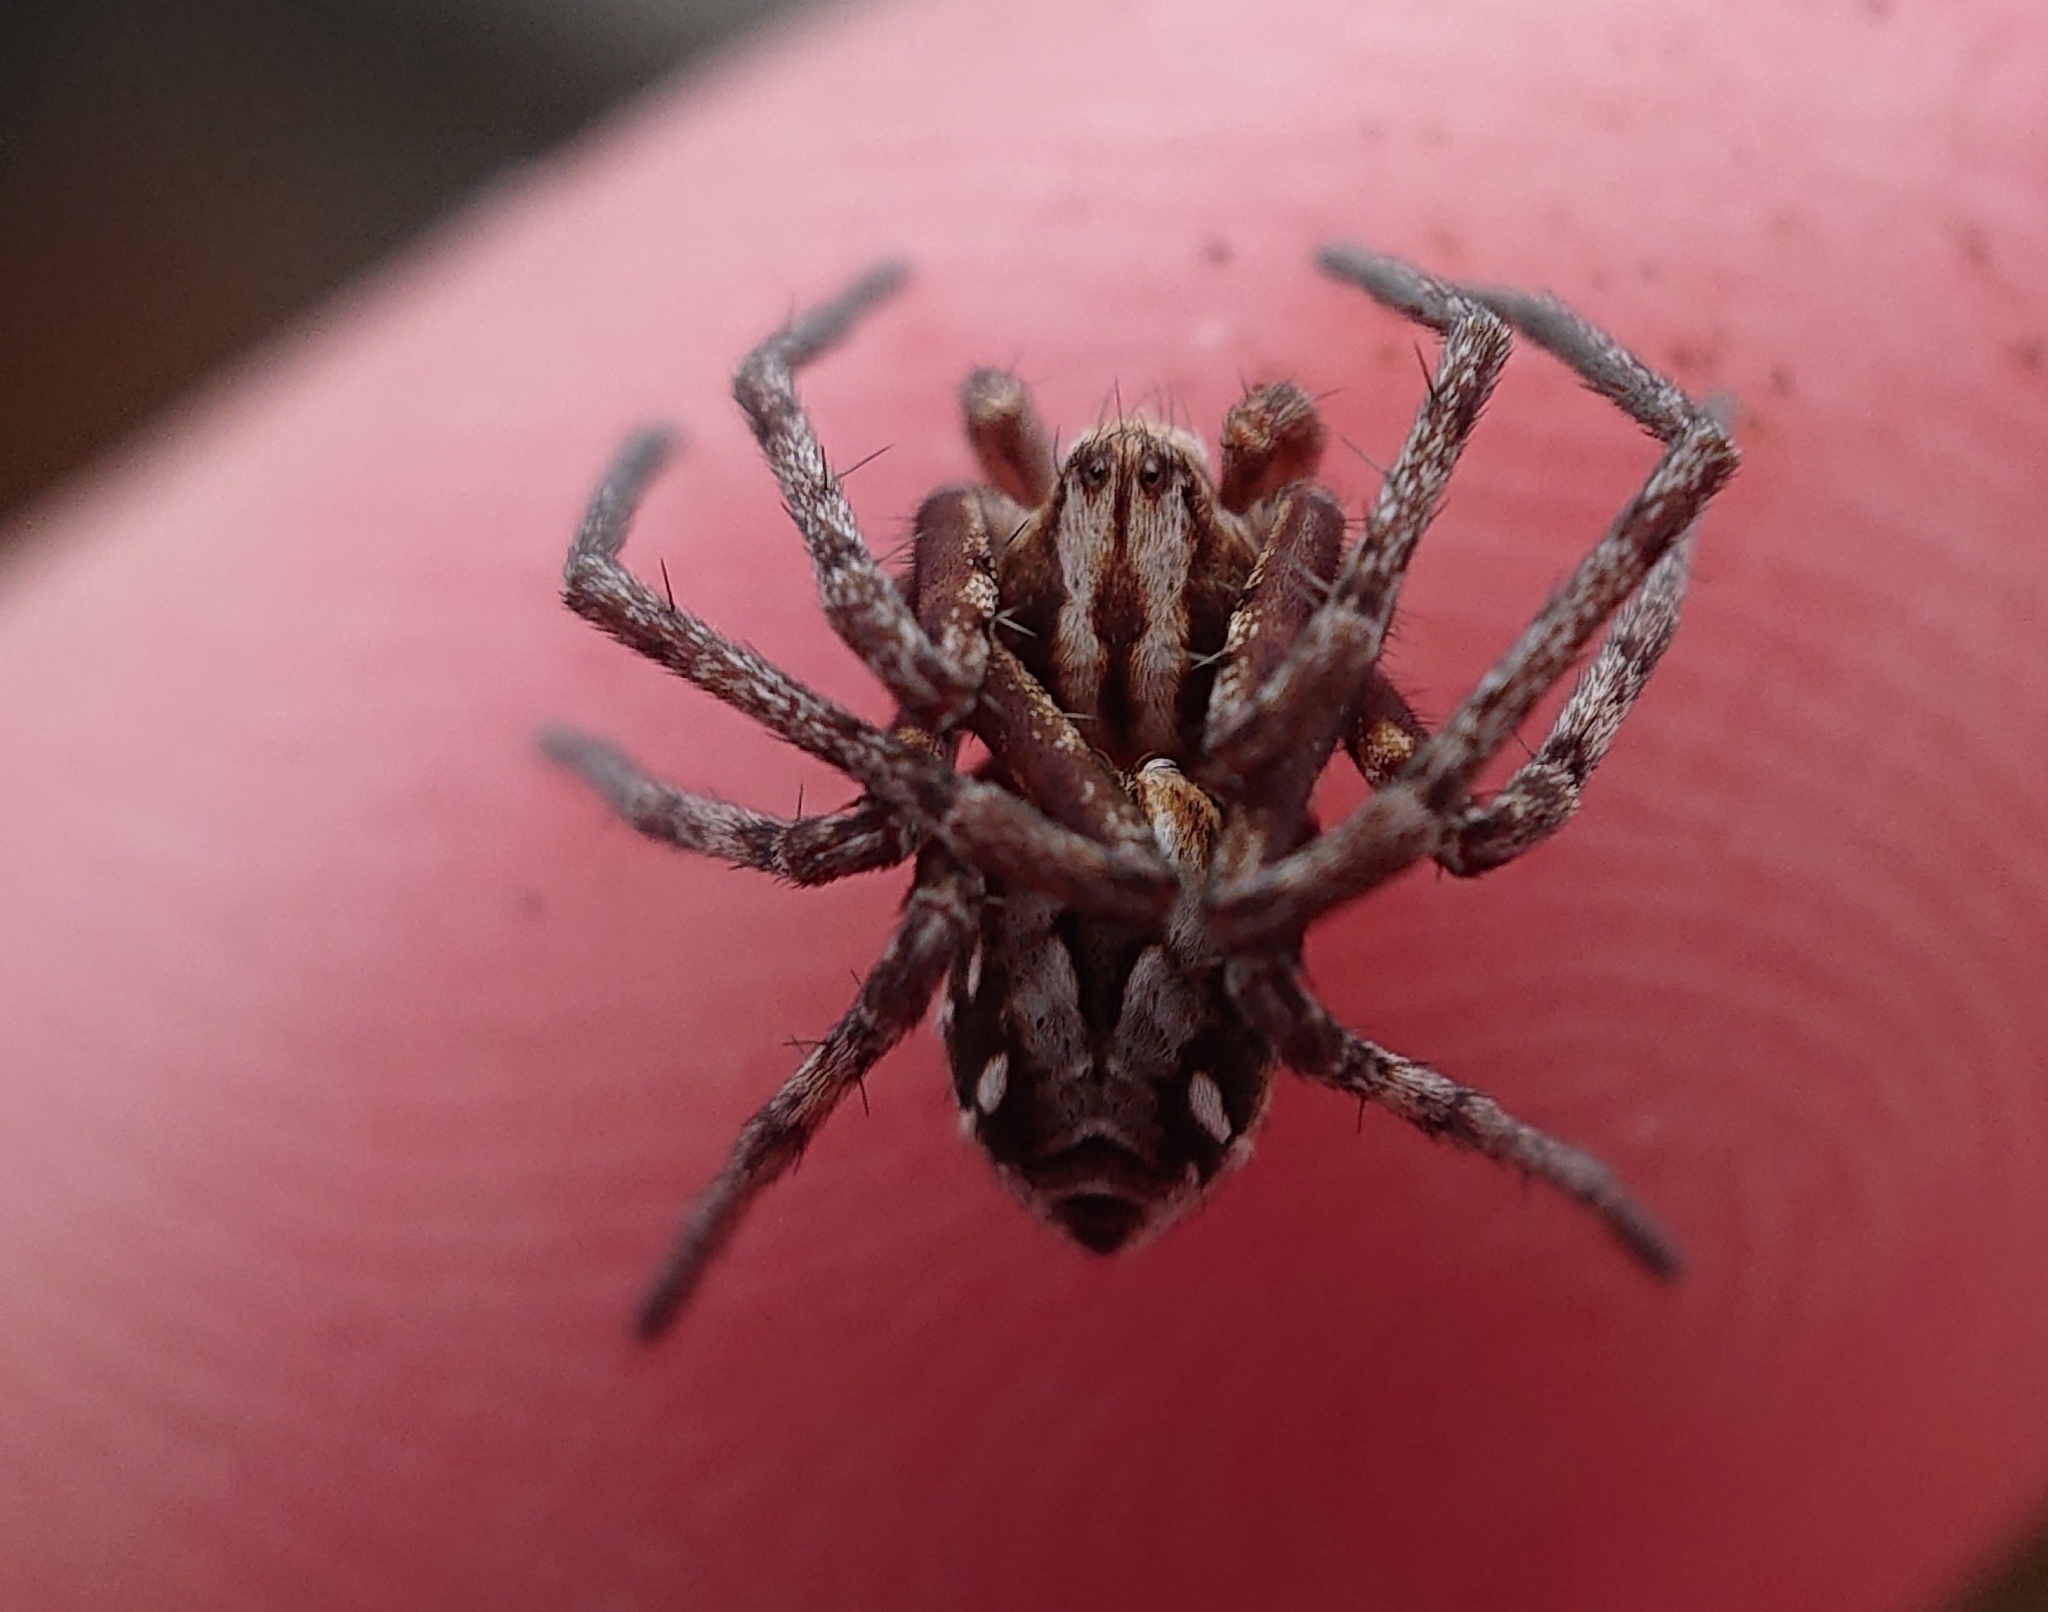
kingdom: Animalia
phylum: Arthropoda
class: Arachnida
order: Araneae
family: Philodromidae
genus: Rhysodromus
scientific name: Rhysodromus histrio
